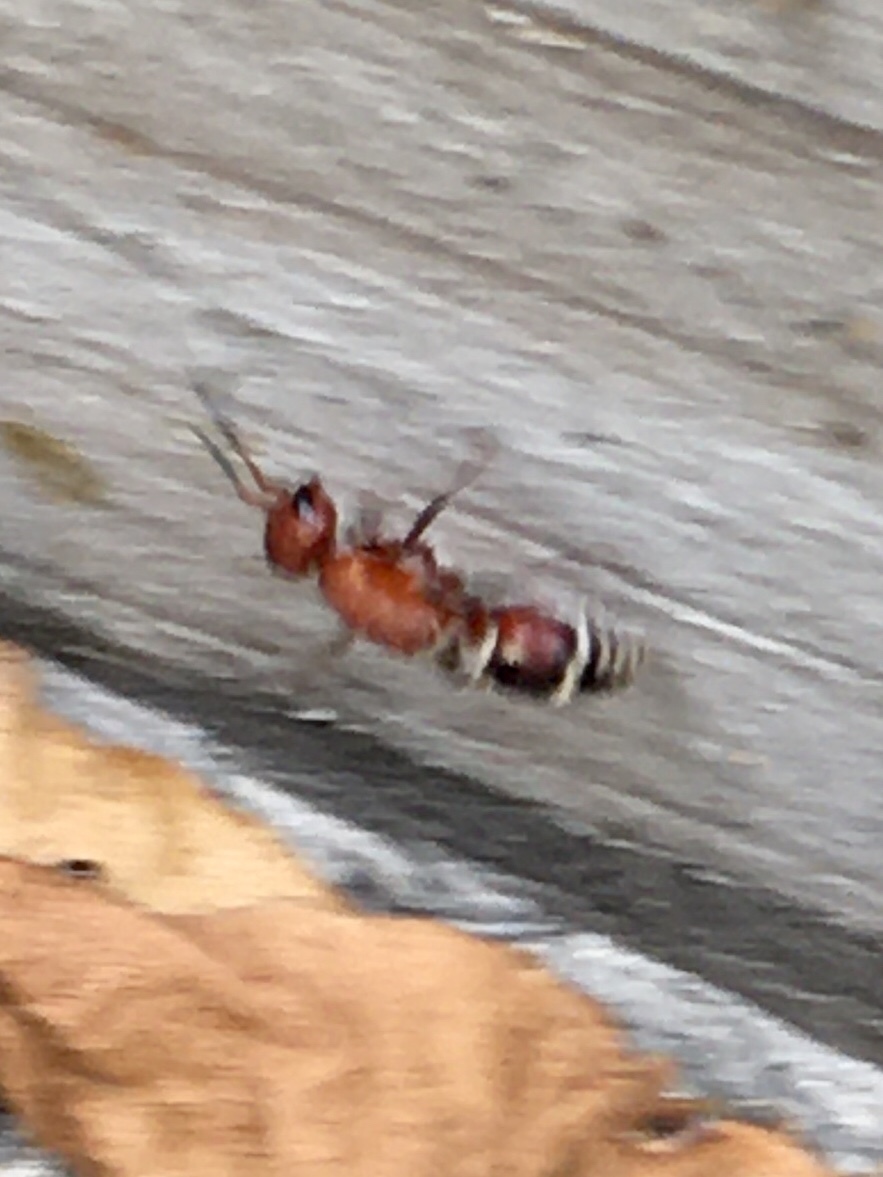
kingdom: Animalia
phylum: Arthropoda
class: Insecta
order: Hymenoptera
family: Mutillidae
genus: Timulla
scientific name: Timulla
